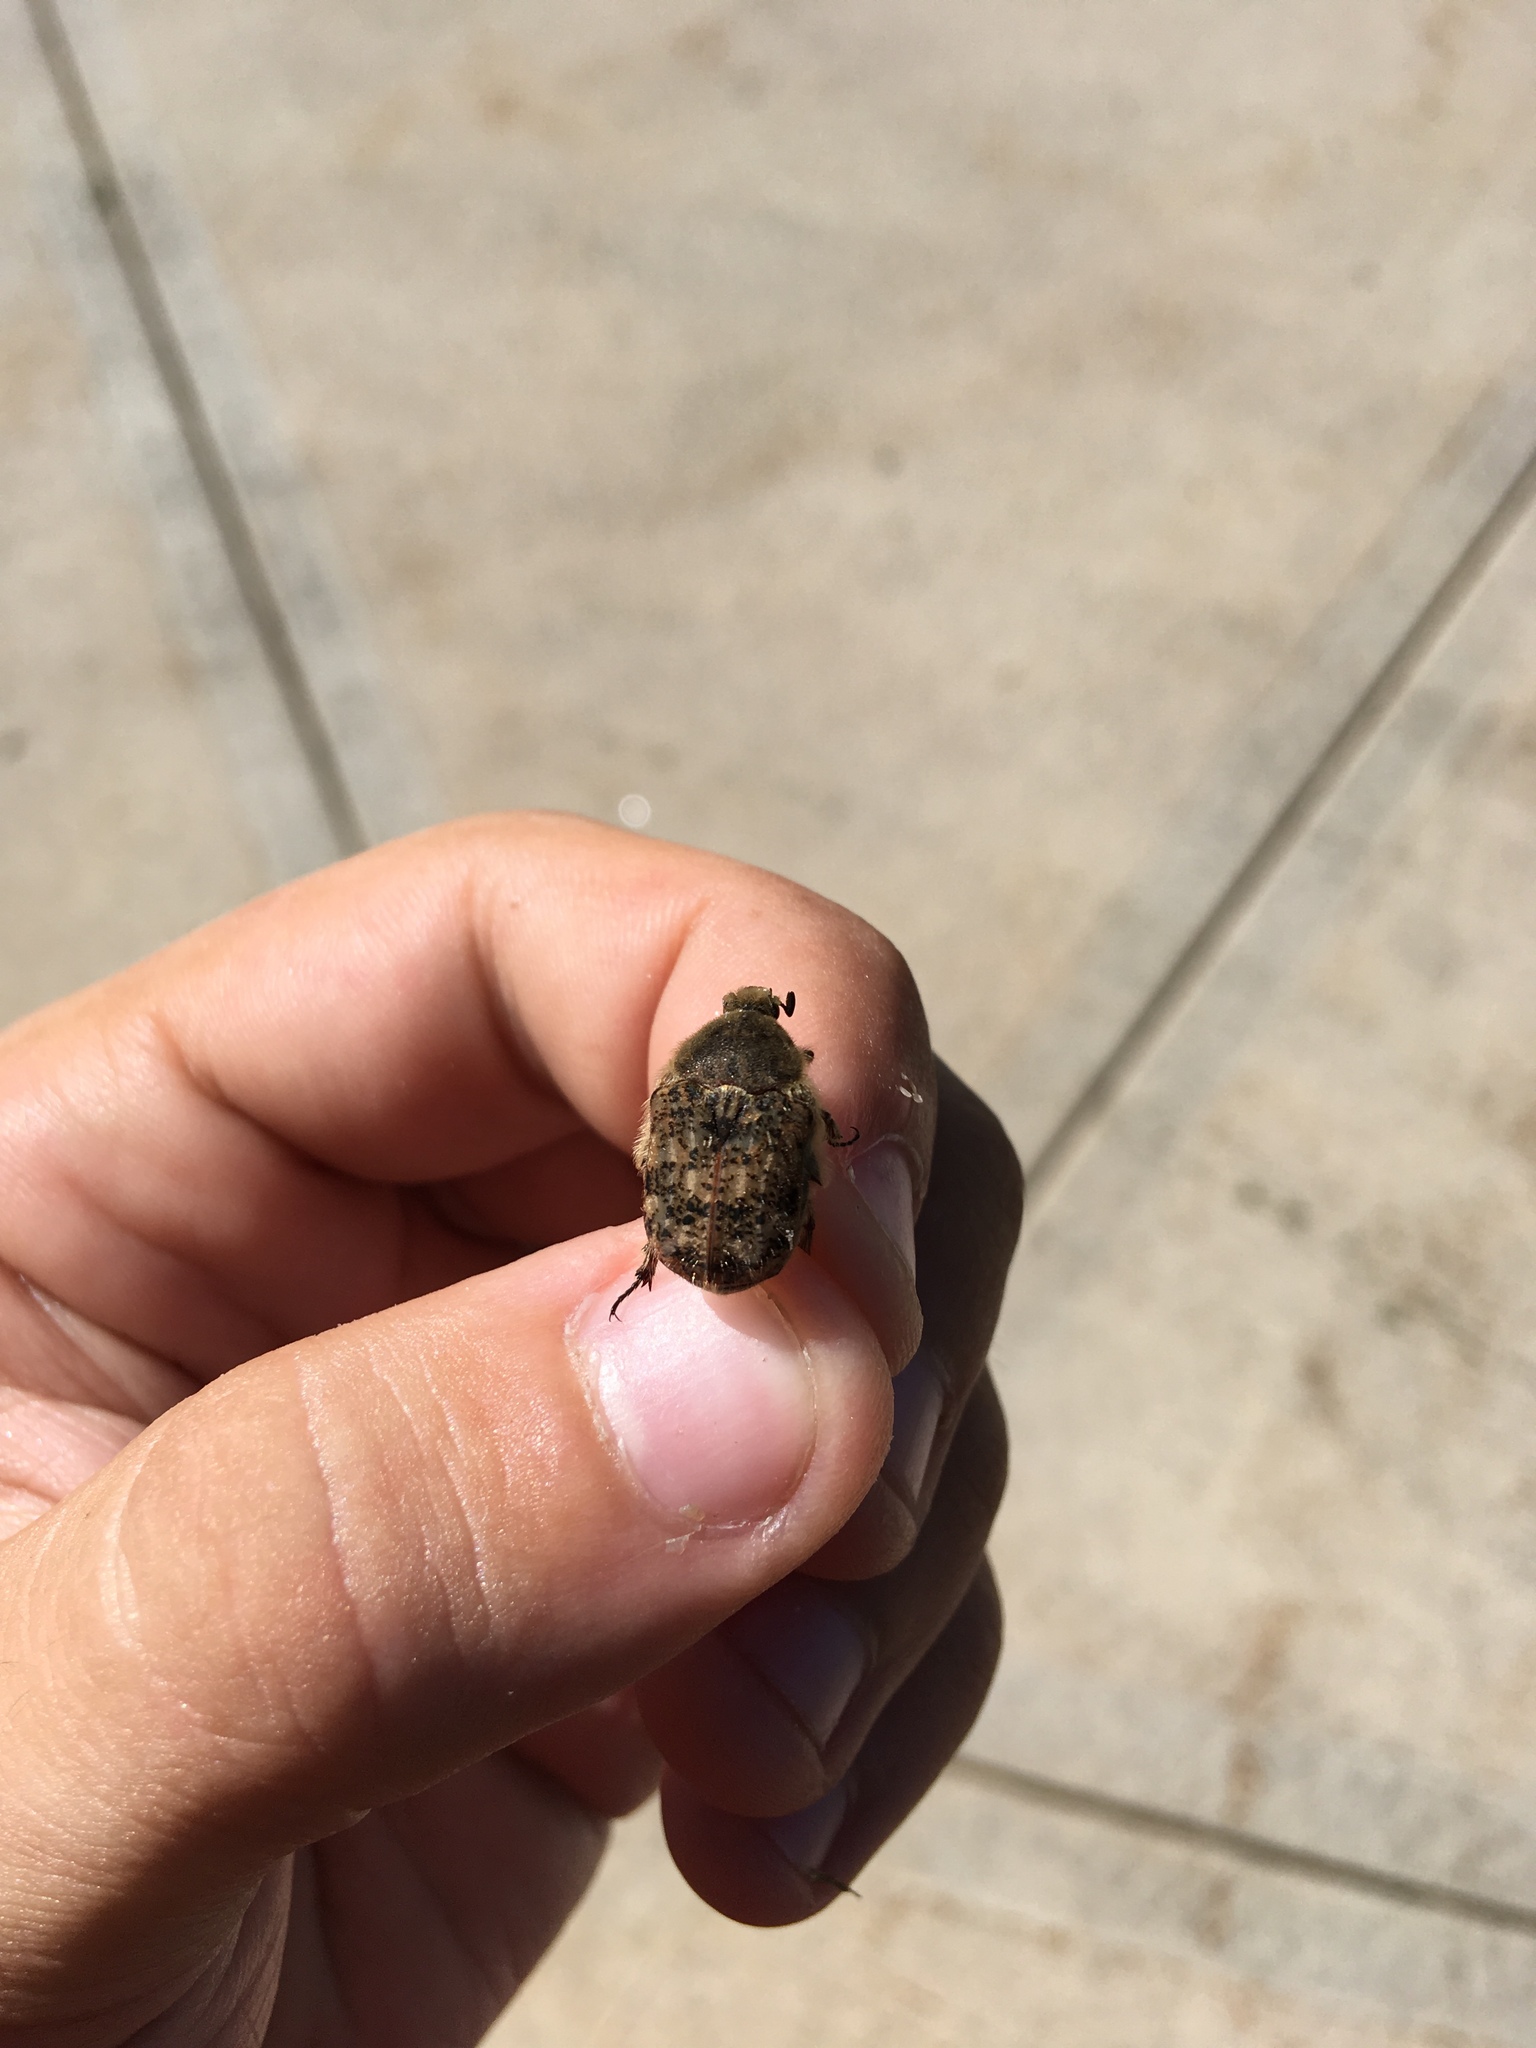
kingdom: Animalia
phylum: Arthropoda
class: Insecta
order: Coleoptera
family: Scarabaeidae
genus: Euphoria
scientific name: Euphoria inda
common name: Bumble flower beetle
